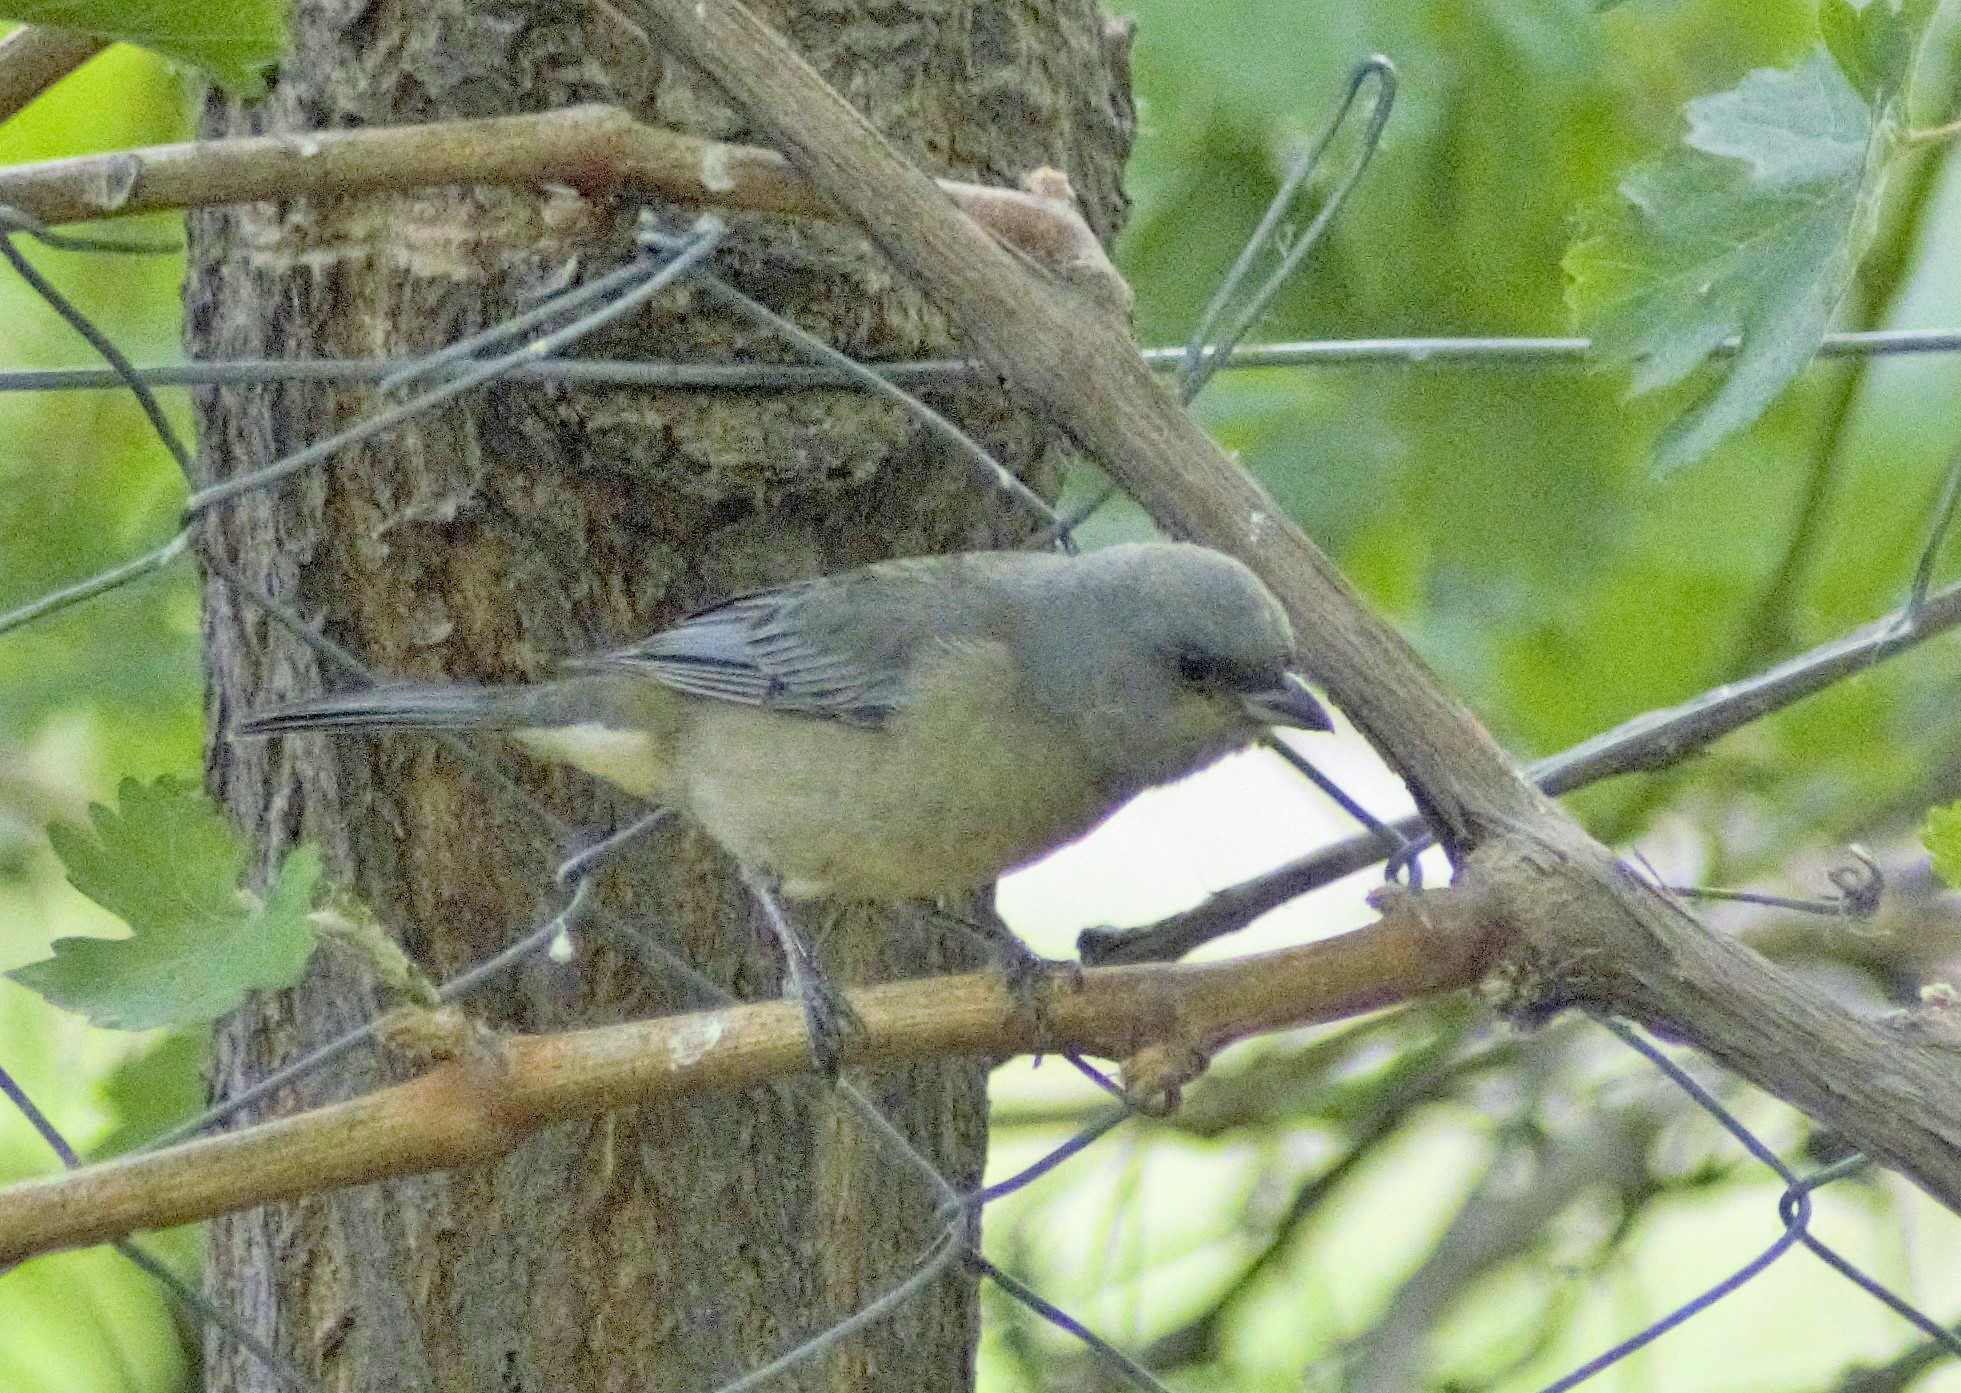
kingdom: Animalia
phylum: Chordata
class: Aves
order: Passeriformes
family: Thraupidae
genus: Rauenia
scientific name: Rauenia bonariensis
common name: Blue-and-yellow tanager
